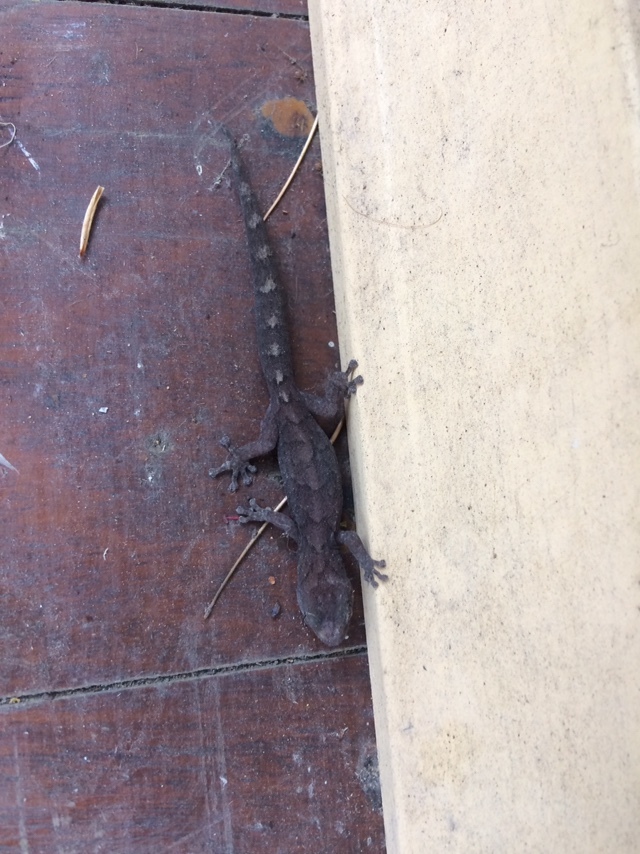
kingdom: Animalia
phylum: Chordata
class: Squamata
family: Gekkonidae
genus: Christinus
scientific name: Christinus marmoratus
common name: Marbled gecko
